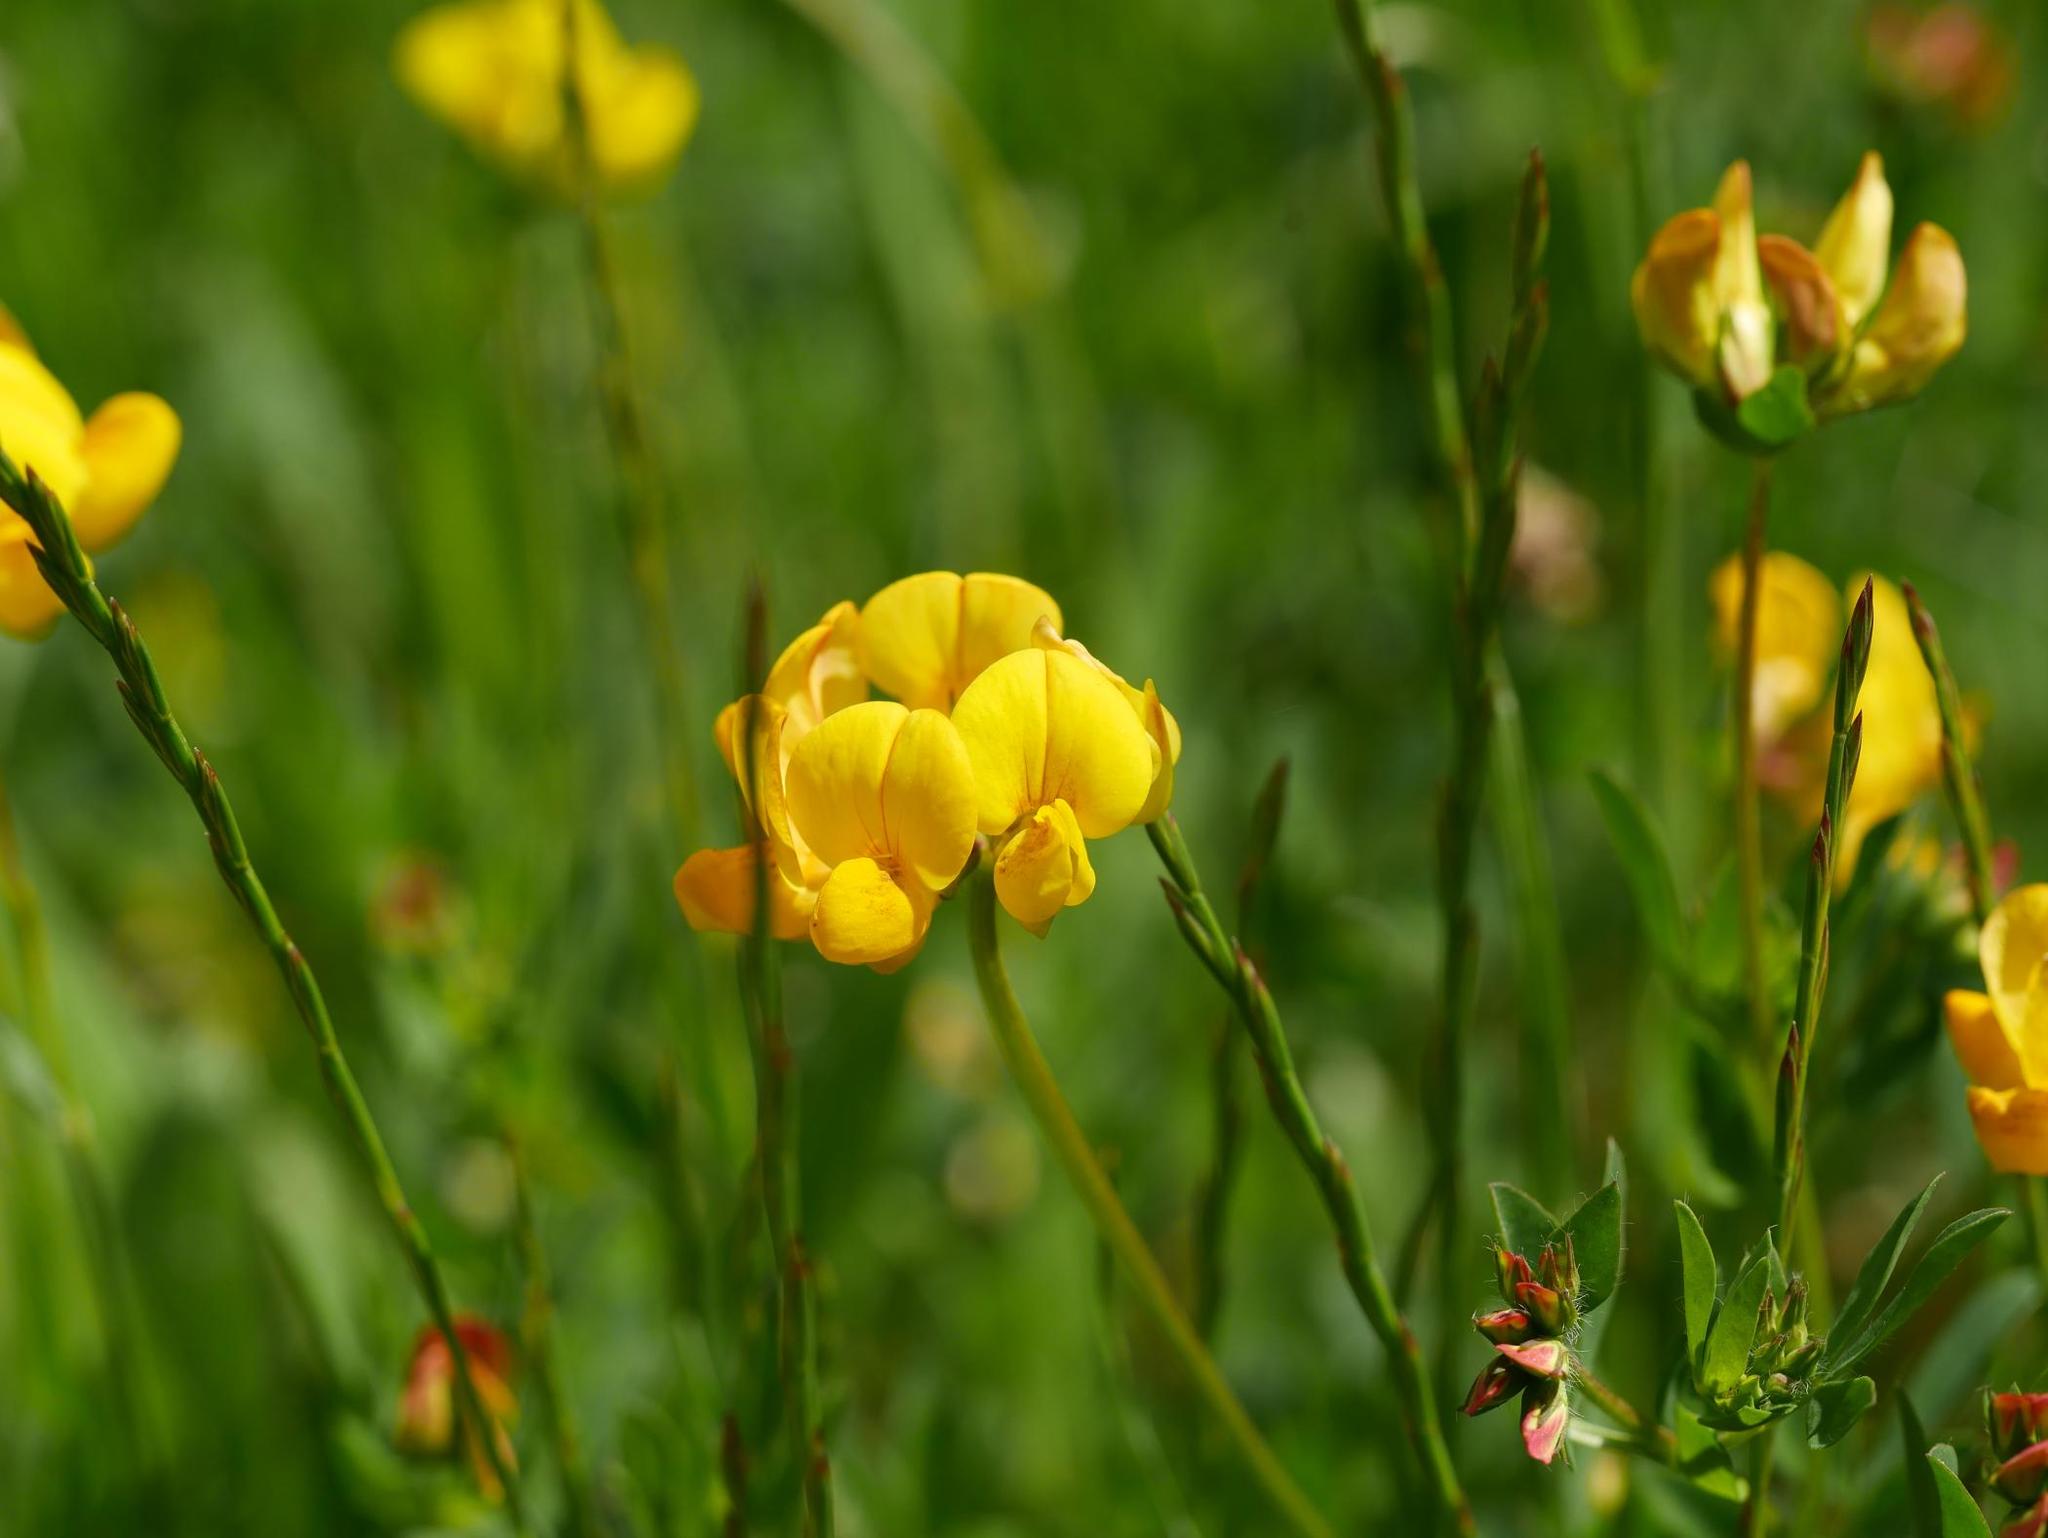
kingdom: Plantae
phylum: Tracheophyta
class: Magnoliopsida
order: Fabales
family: Fabaceae
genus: Lotus
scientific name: Lotus corniculatus
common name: Common bird's-foot-trefoil
